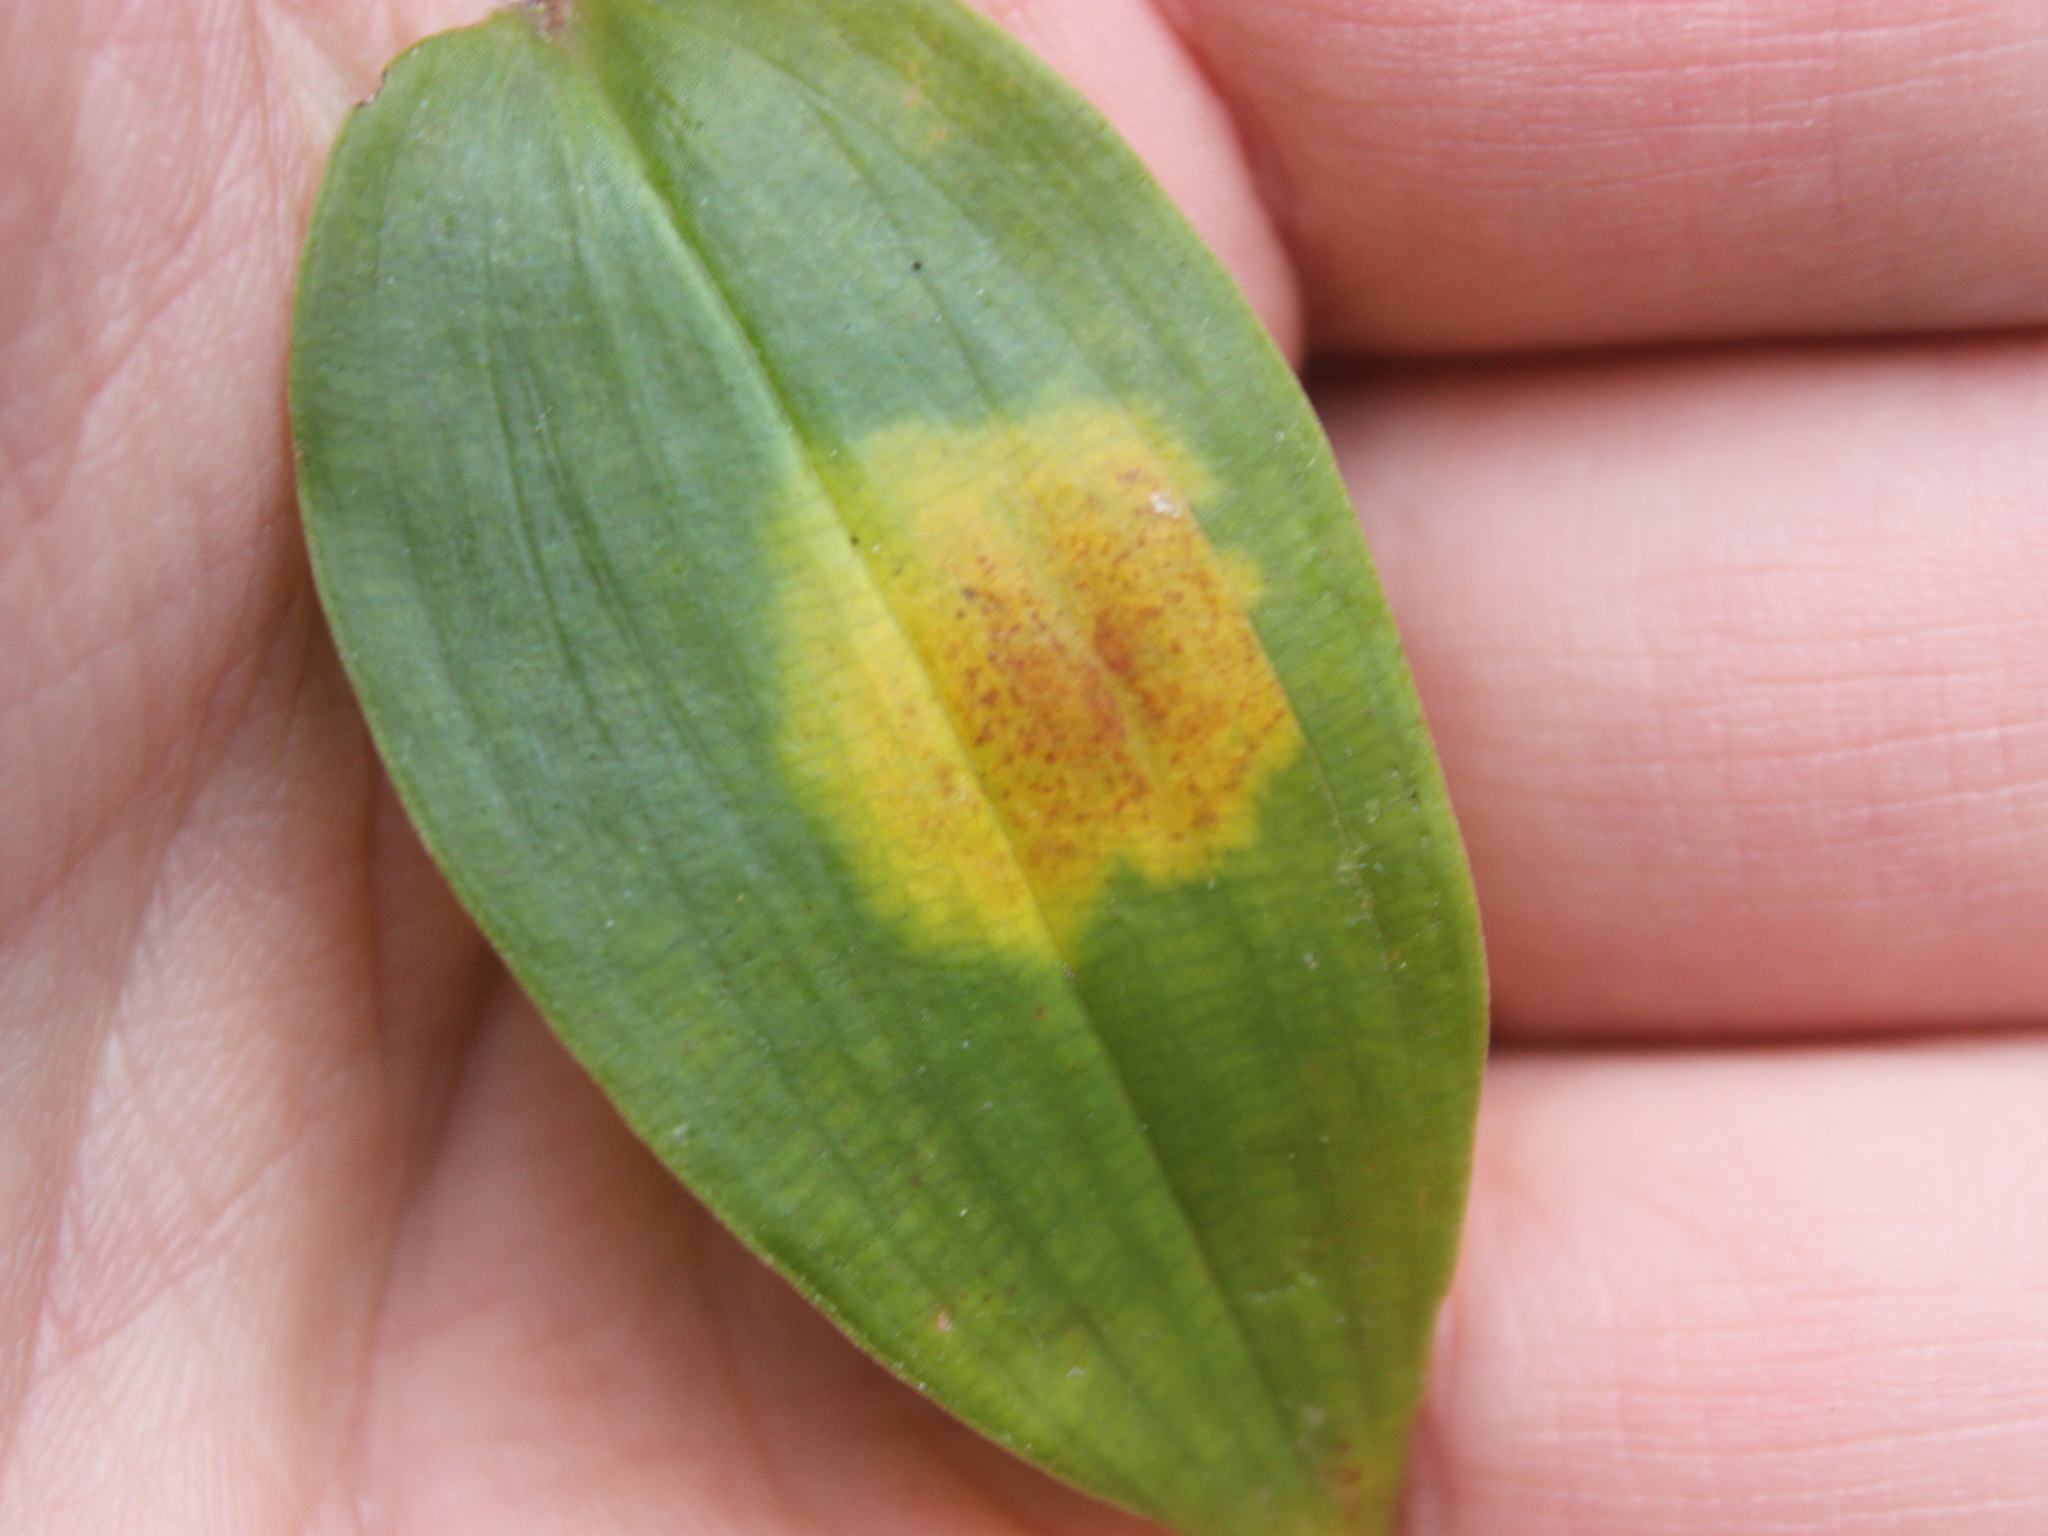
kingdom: Fungi
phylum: Basidiomycota
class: Exobasidiomycetes
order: Exobasidiales
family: Brachybasidiaceae
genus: Kordyana
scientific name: Kordyana brasiliensis
